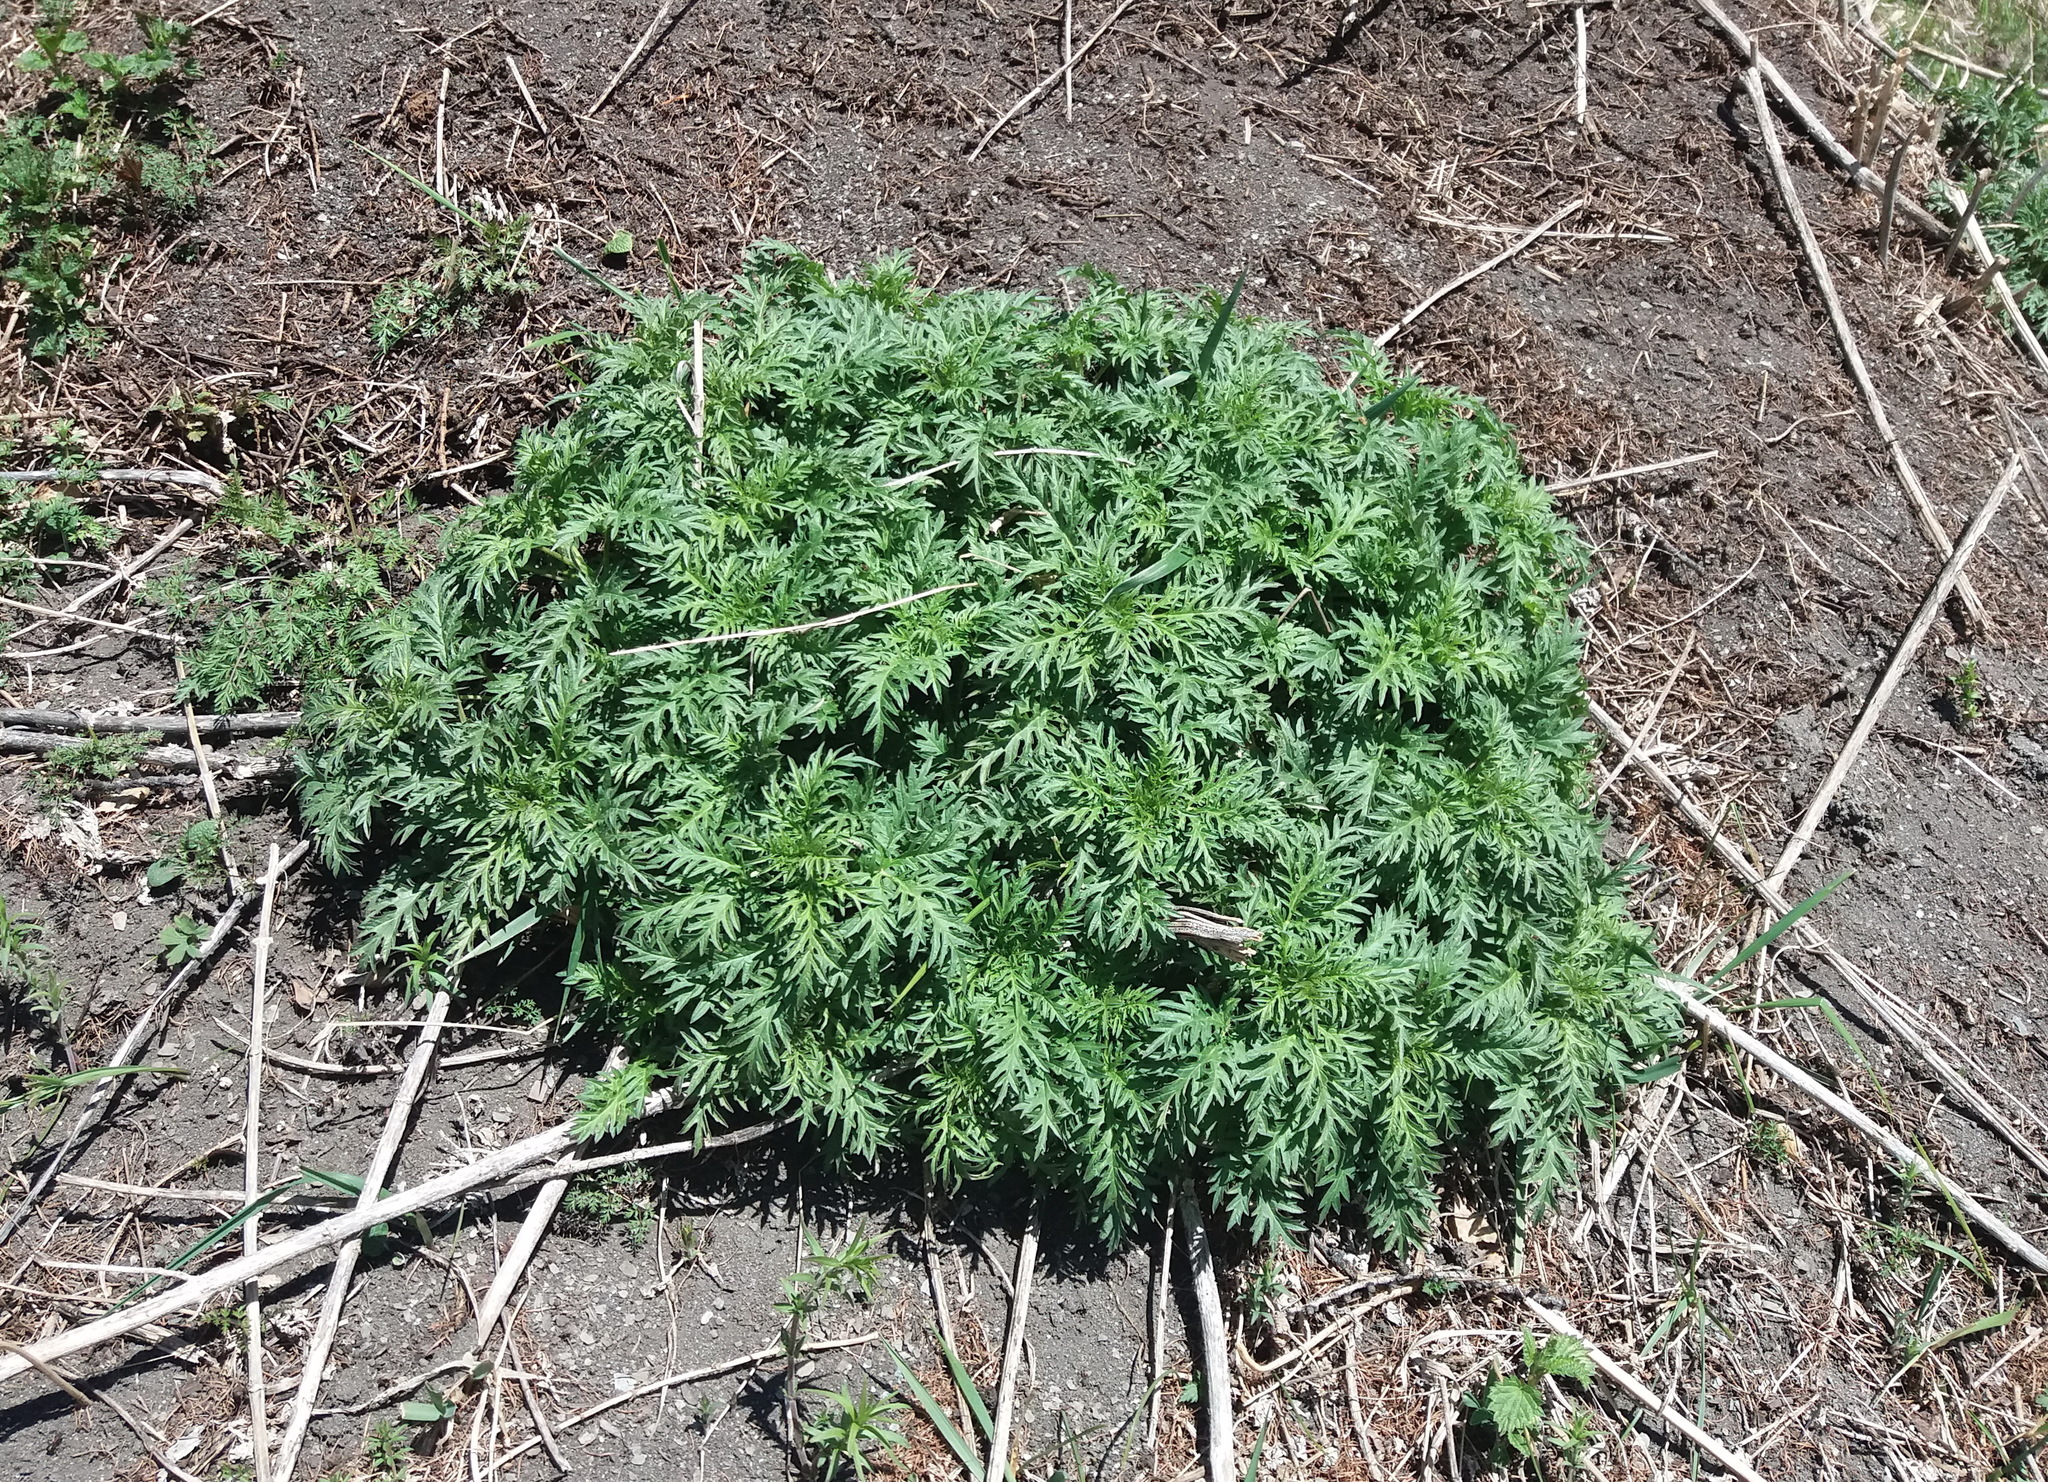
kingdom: Plantae
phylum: Tracheophyta
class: Magnoliopsida
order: Rosales
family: Urticaceae
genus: Urtica
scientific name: Urtica cannabina
